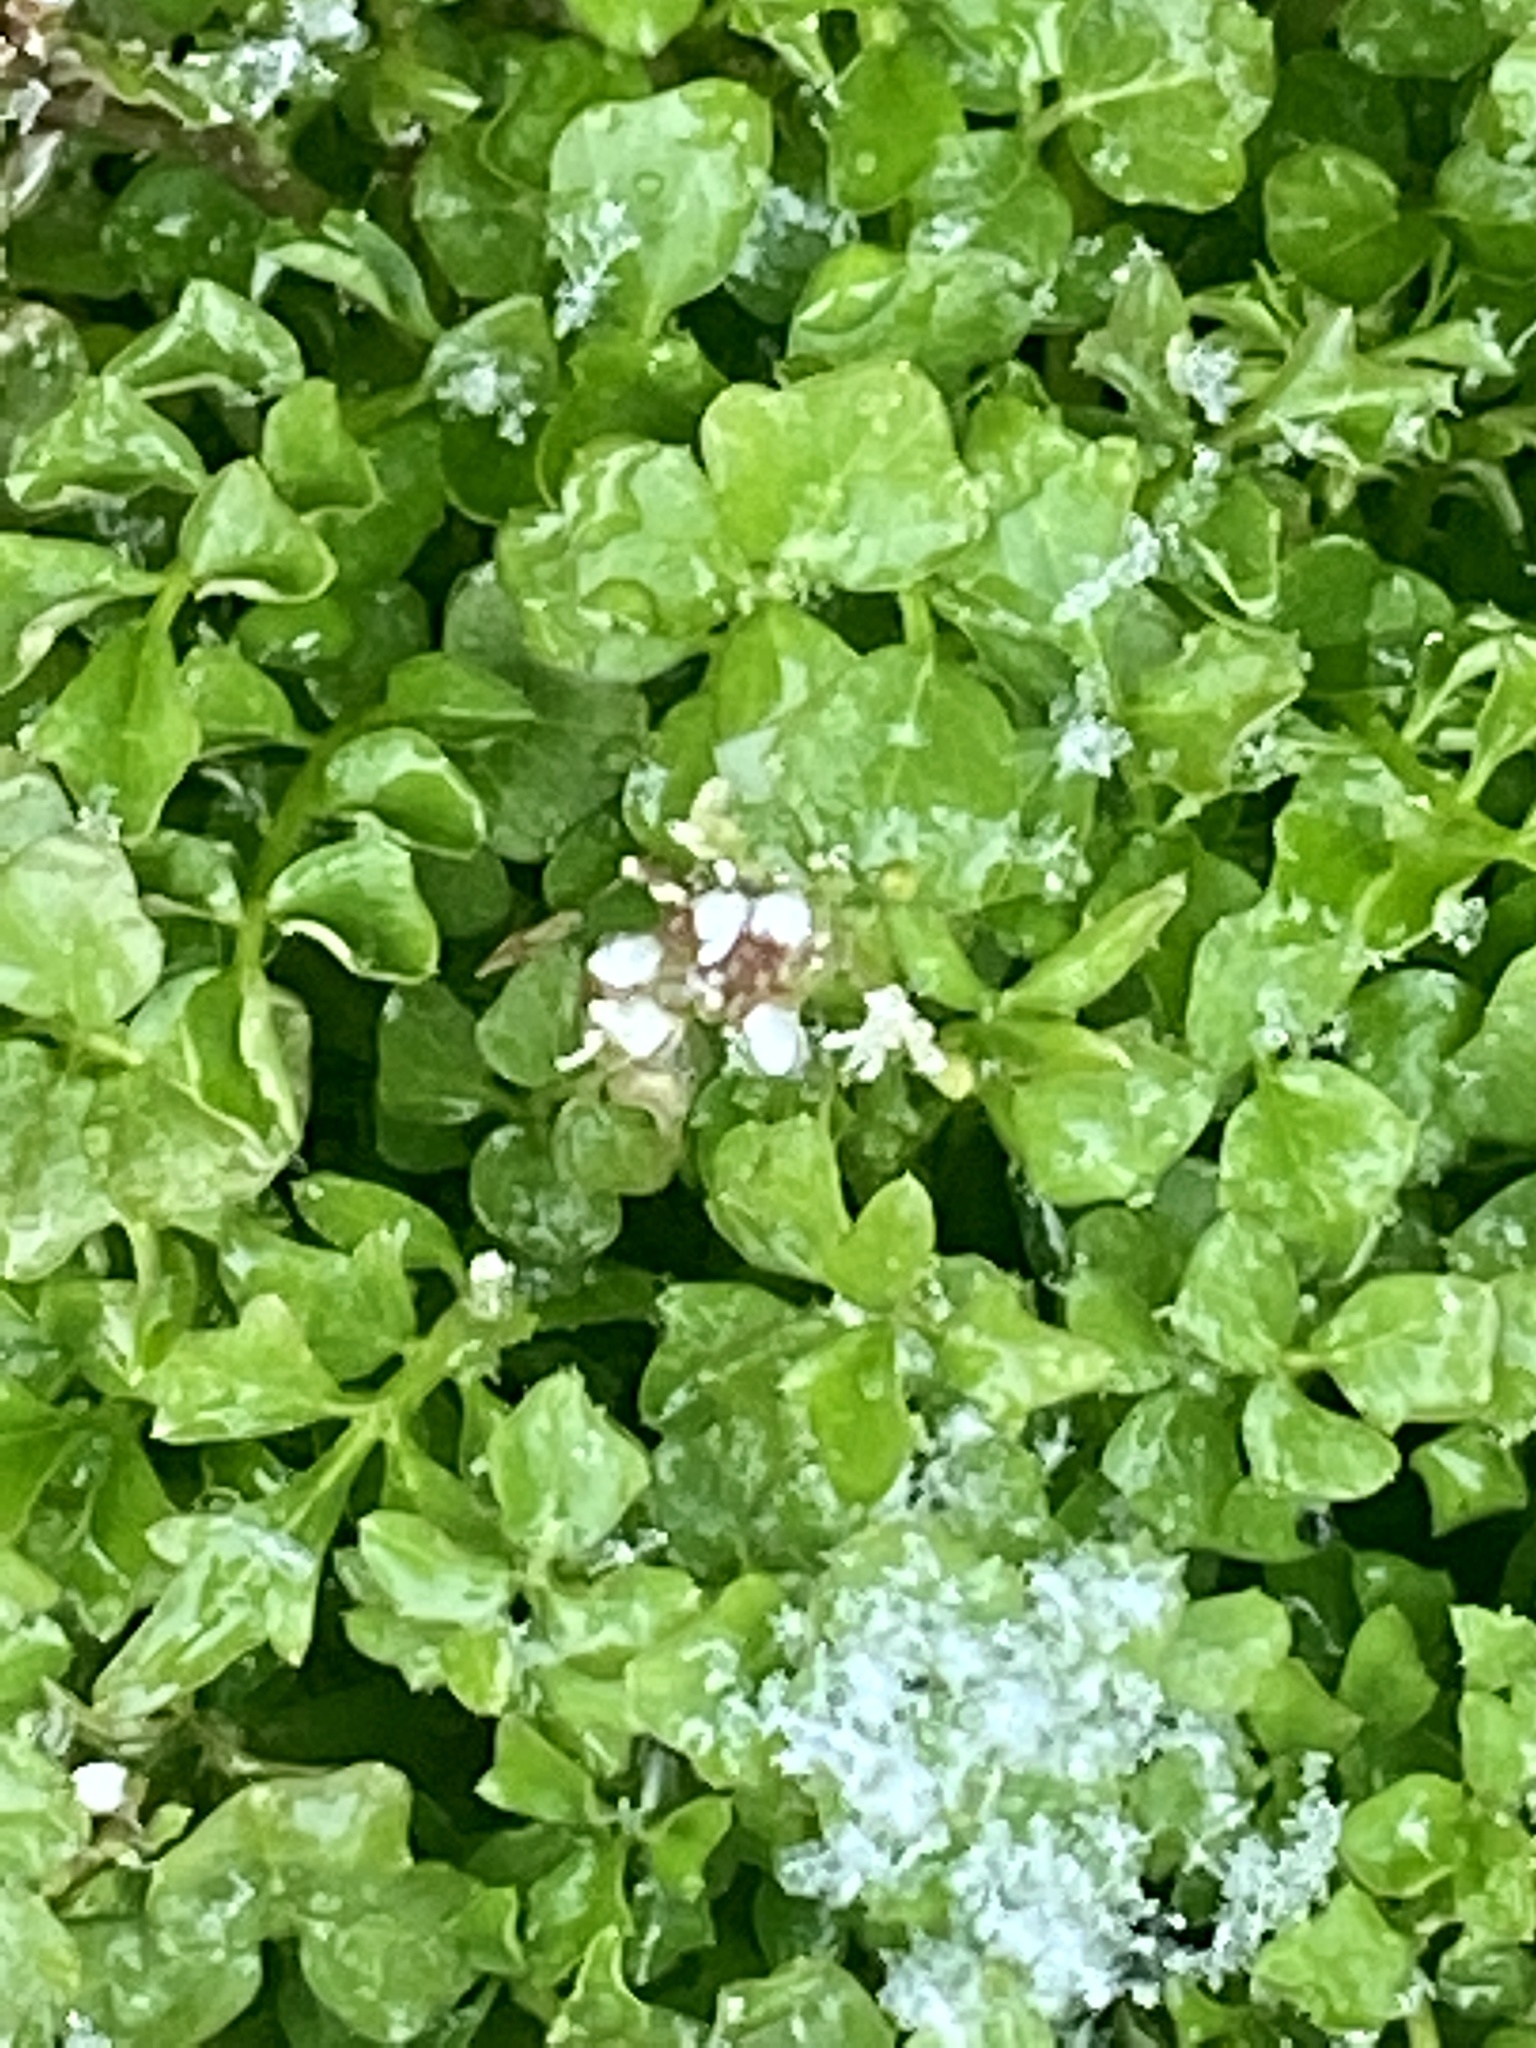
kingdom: Plantae
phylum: Tracheophyta
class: Magnoliopsida
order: Brassicales
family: Brassicaceae
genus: Cardamine
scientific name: Cardamine hirsuta
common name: Hairy bittercress
